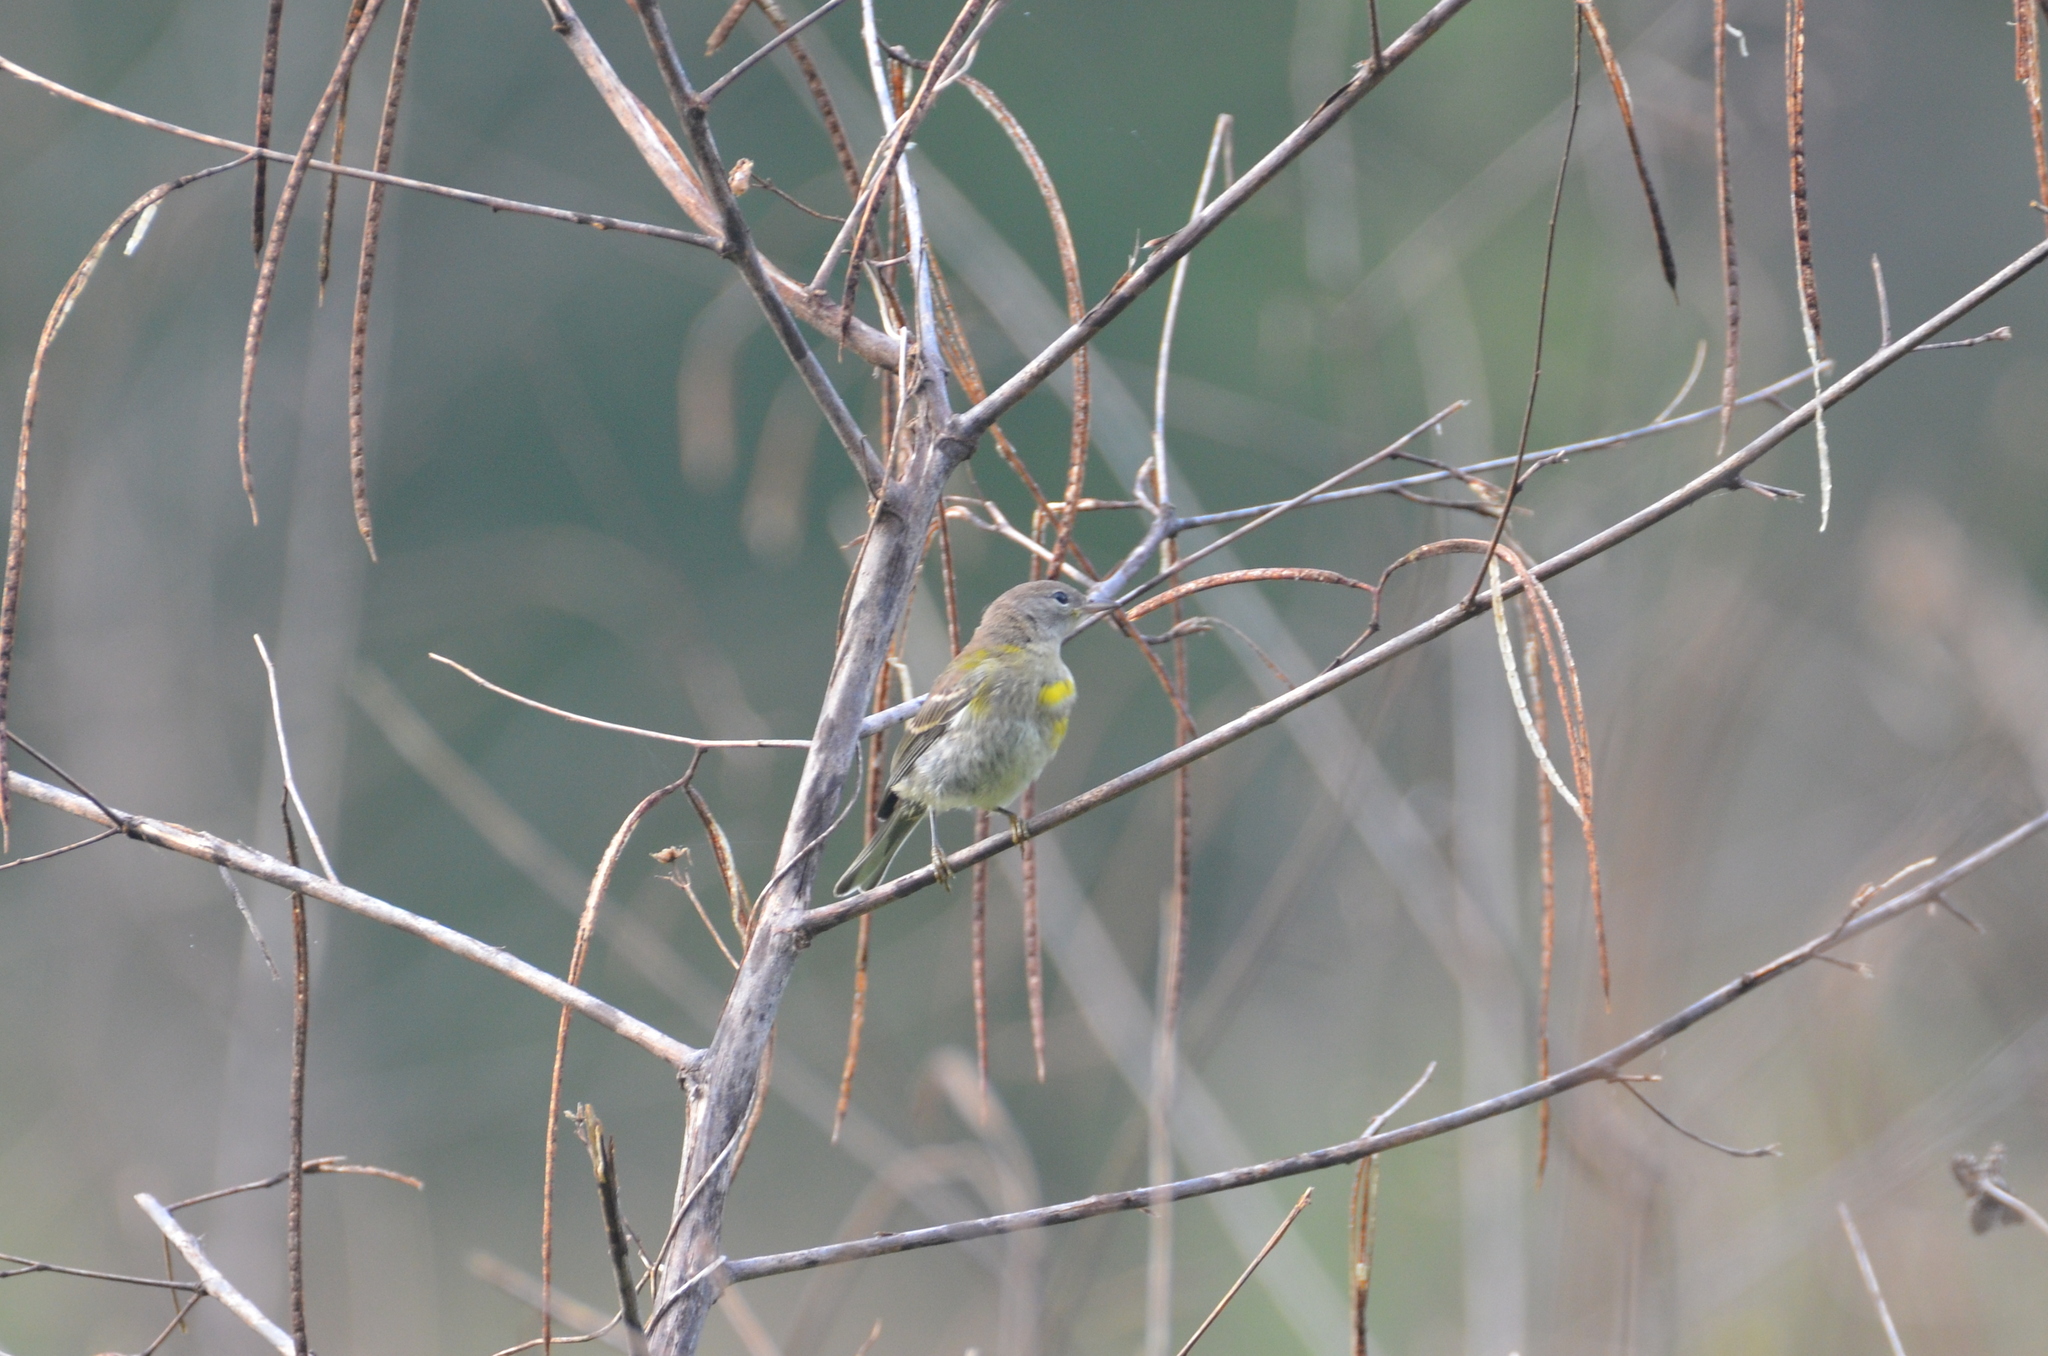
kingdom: Animalia
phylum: Chordata
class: Aves
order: Passeriformes
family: Parulidae
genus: Setophaga
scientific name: Setophaga pinus
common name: Pine warbler
